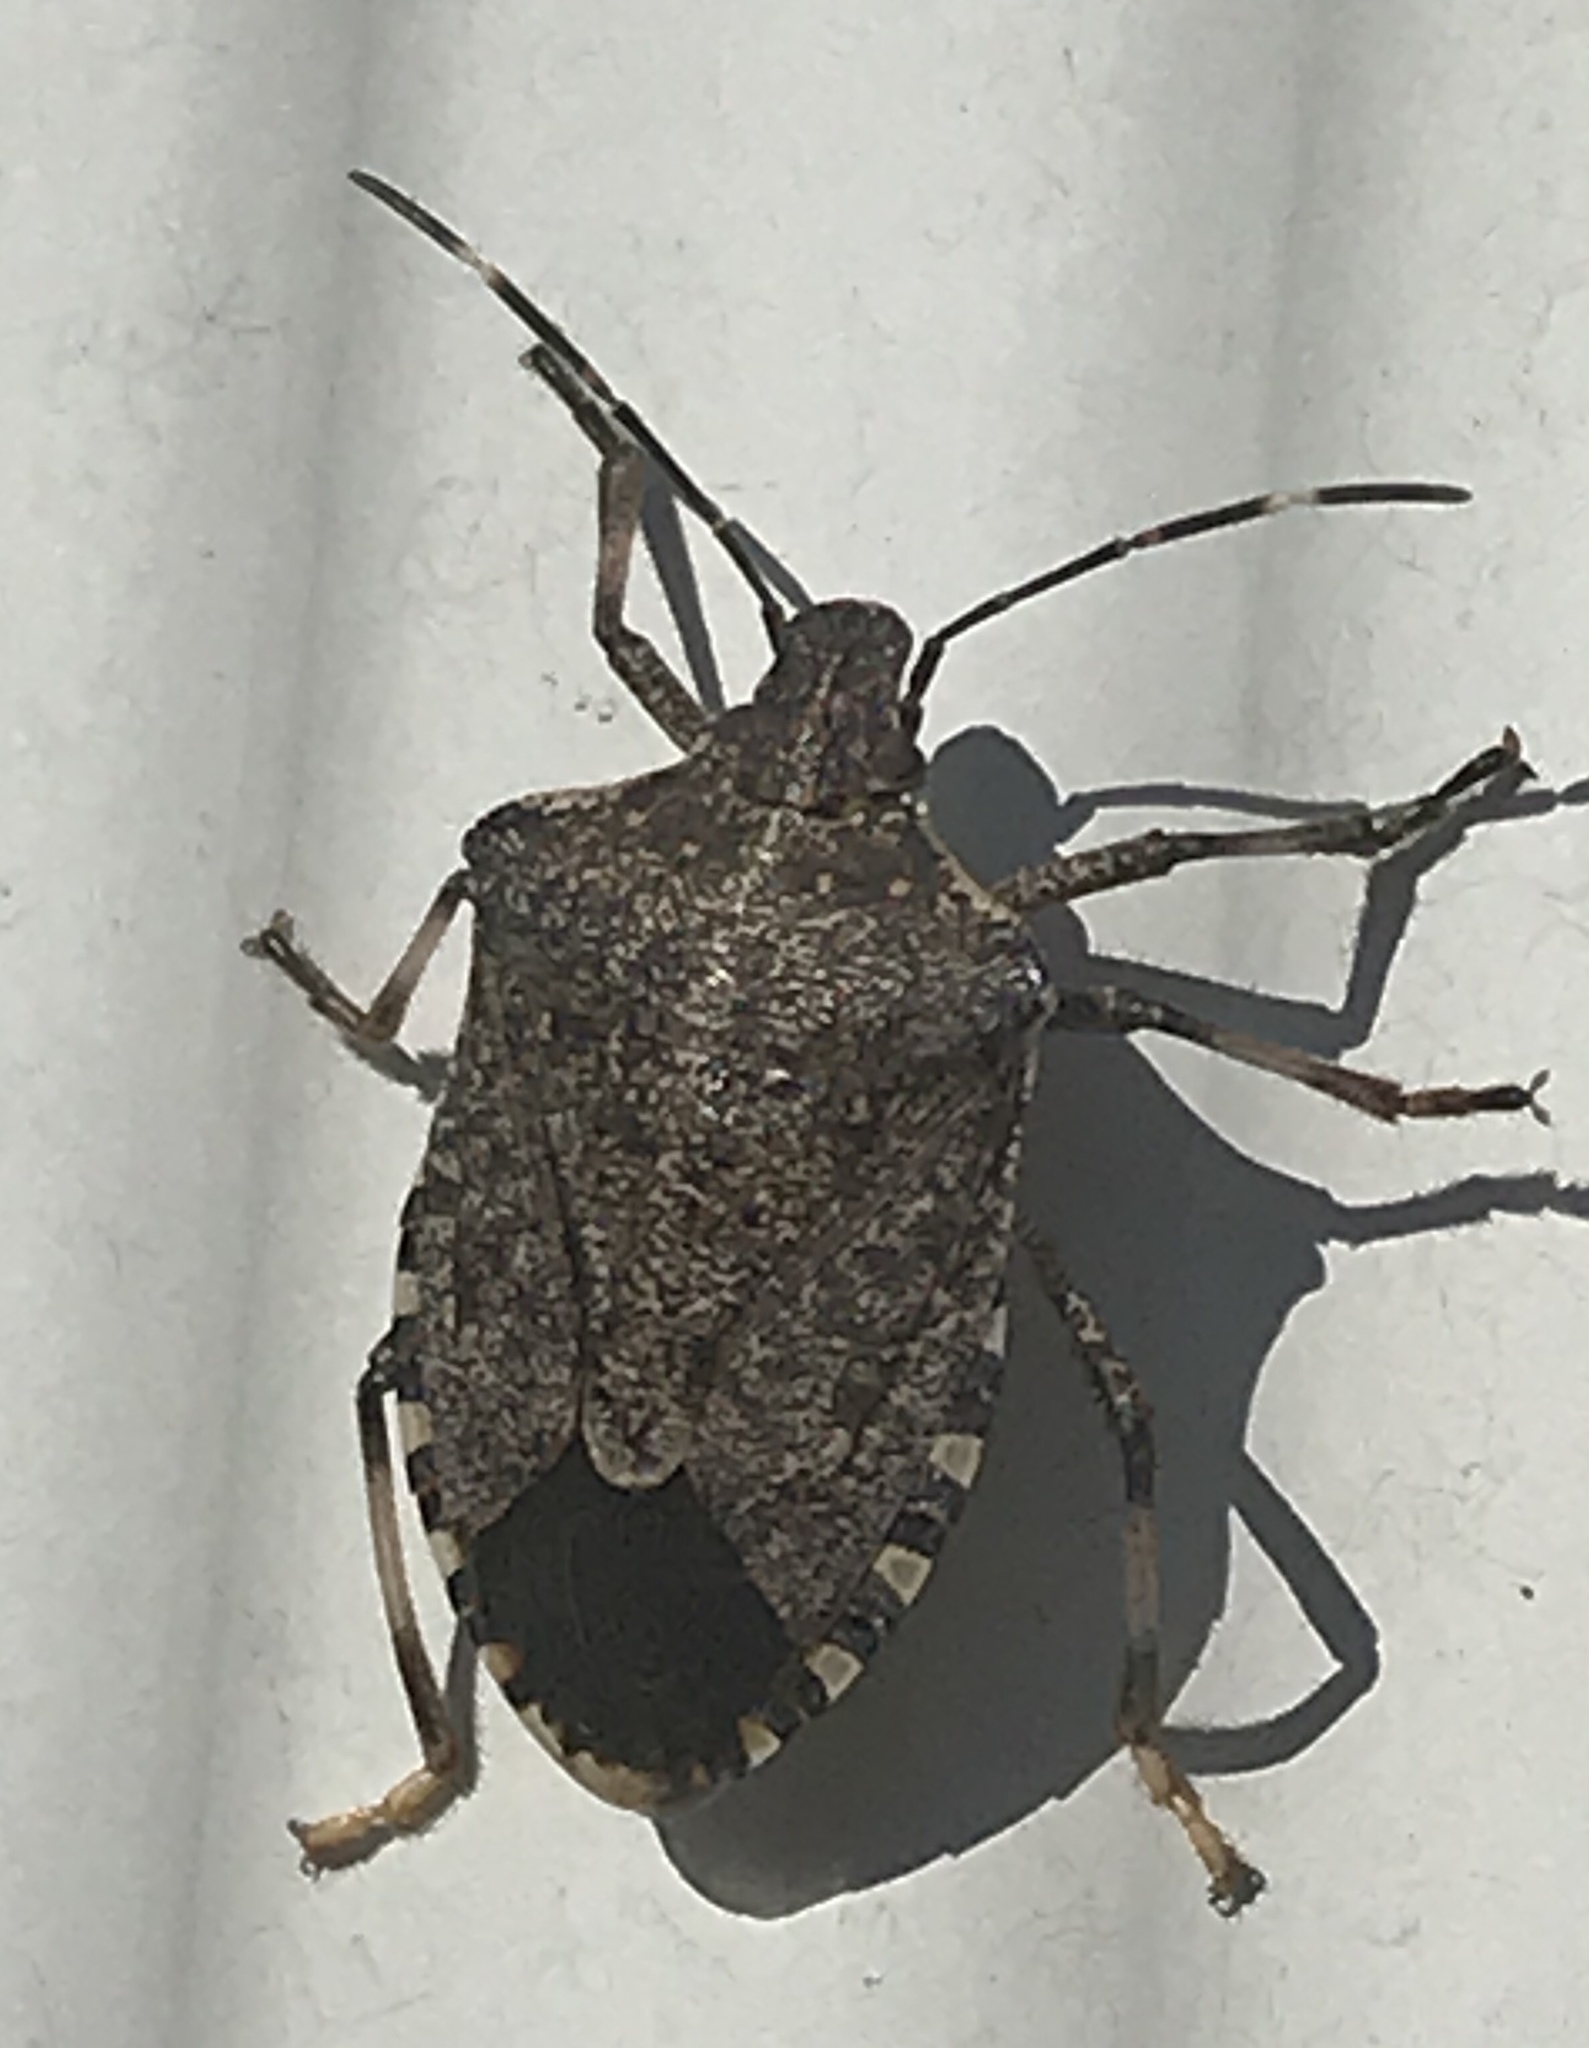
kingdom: Animalia
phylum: Arthropoda
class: Insecta
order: Hemiptera
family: Pentatomidae
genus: Halyomorpha
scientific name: Halyomorpha halys
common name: Brown marmorated stink bug
